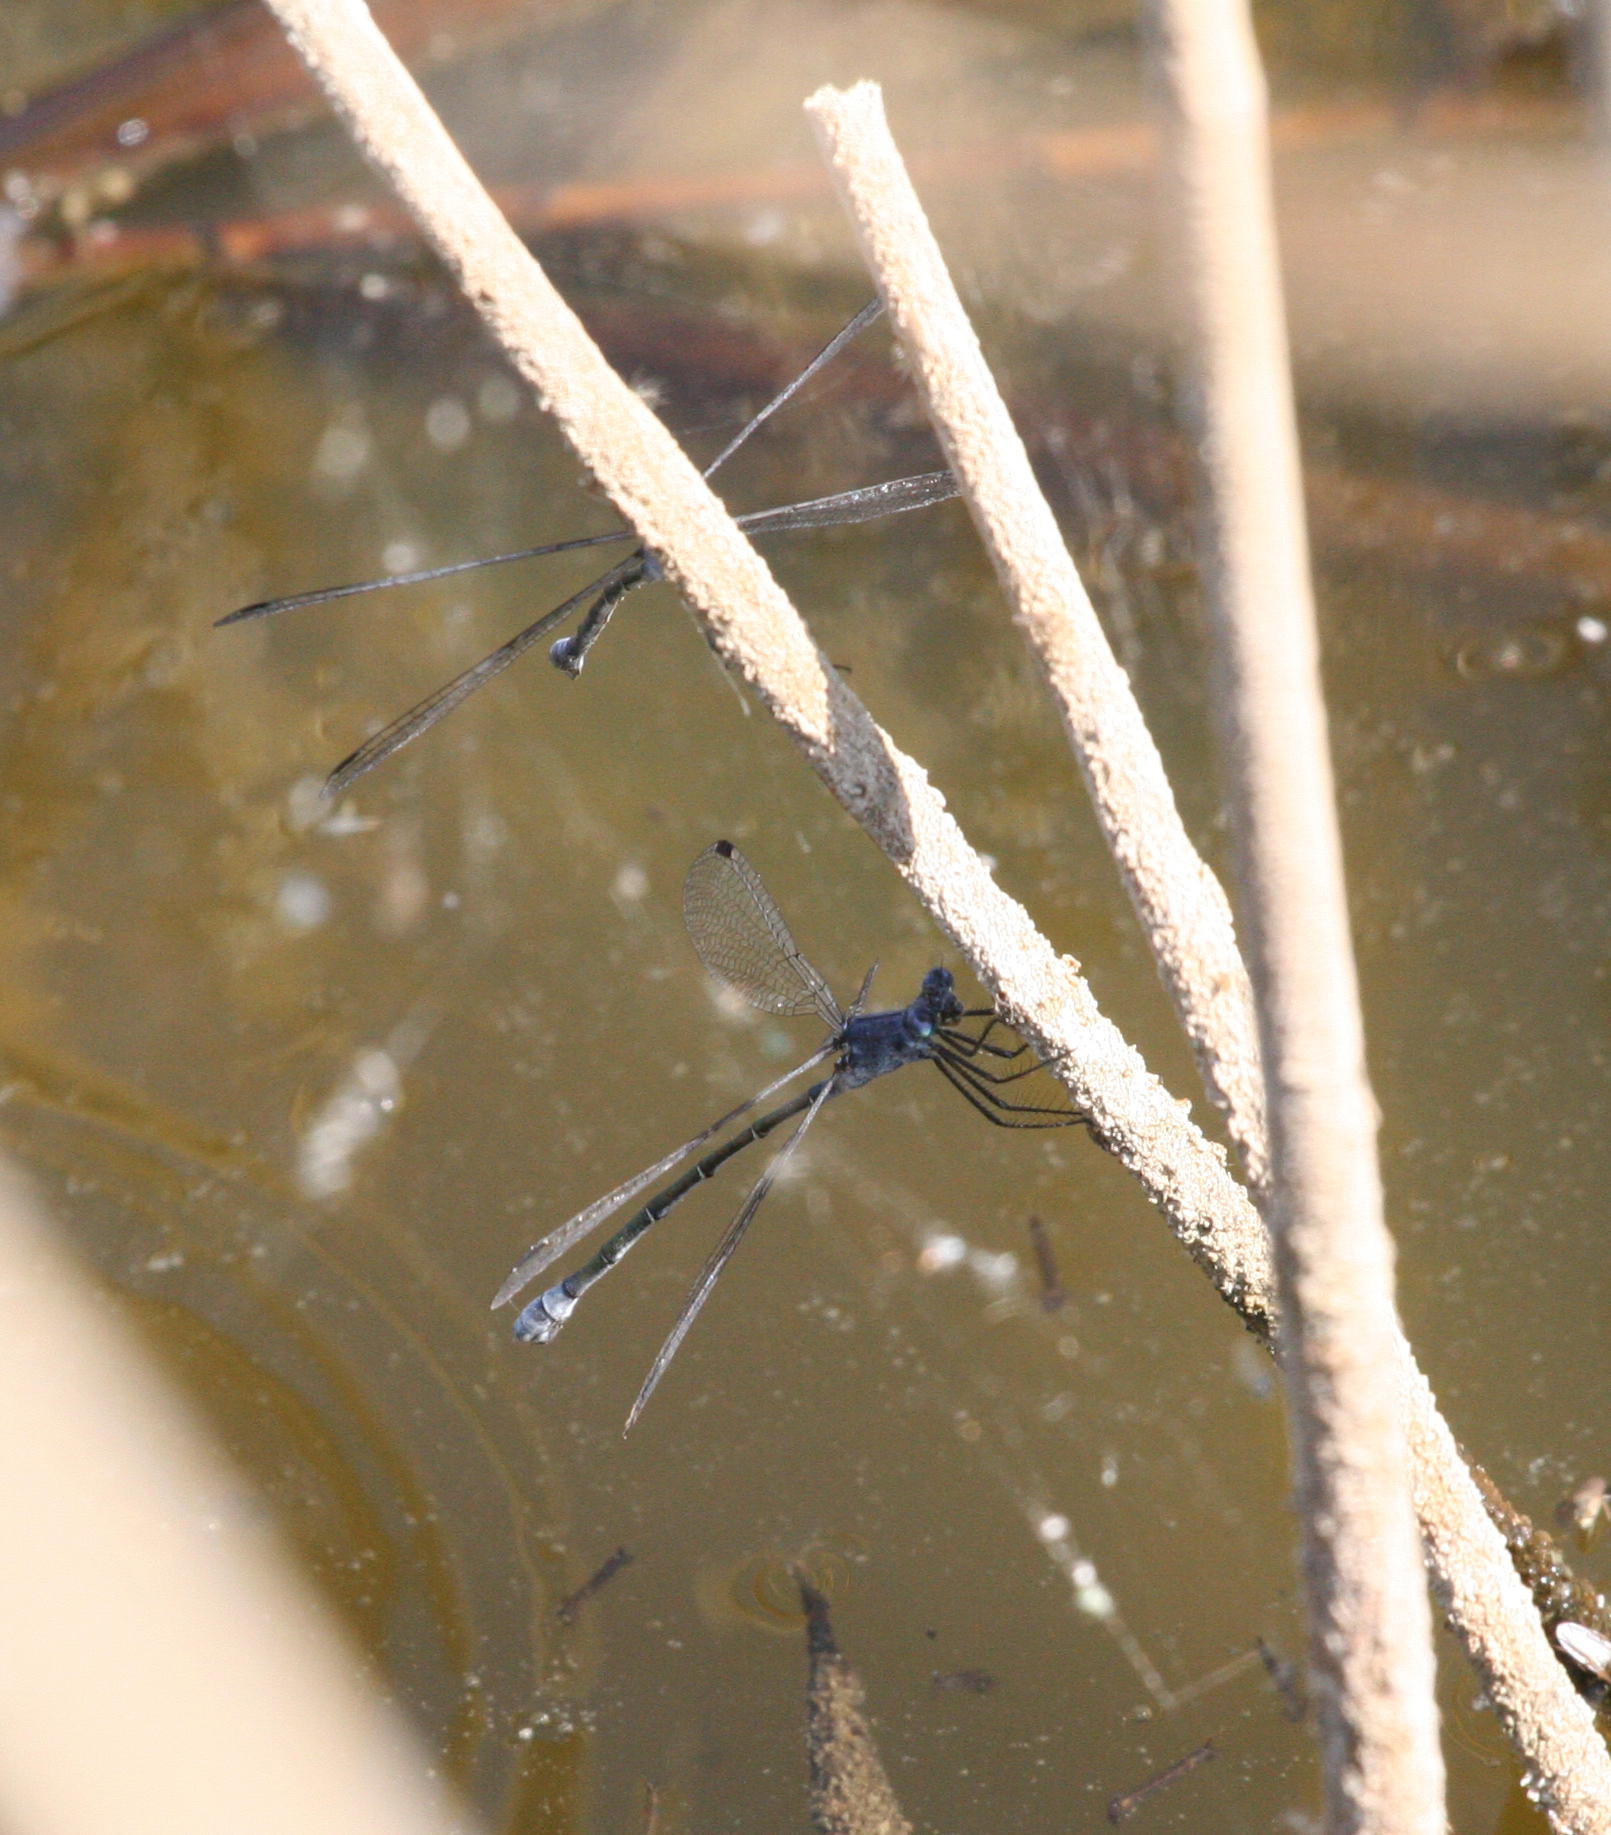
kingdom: Animalia
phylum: Arthropoda
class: Insecta
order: Odonata
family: Lestidae
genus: Lestes
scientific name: Lestes macrostigma
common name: Dark spreadwing
